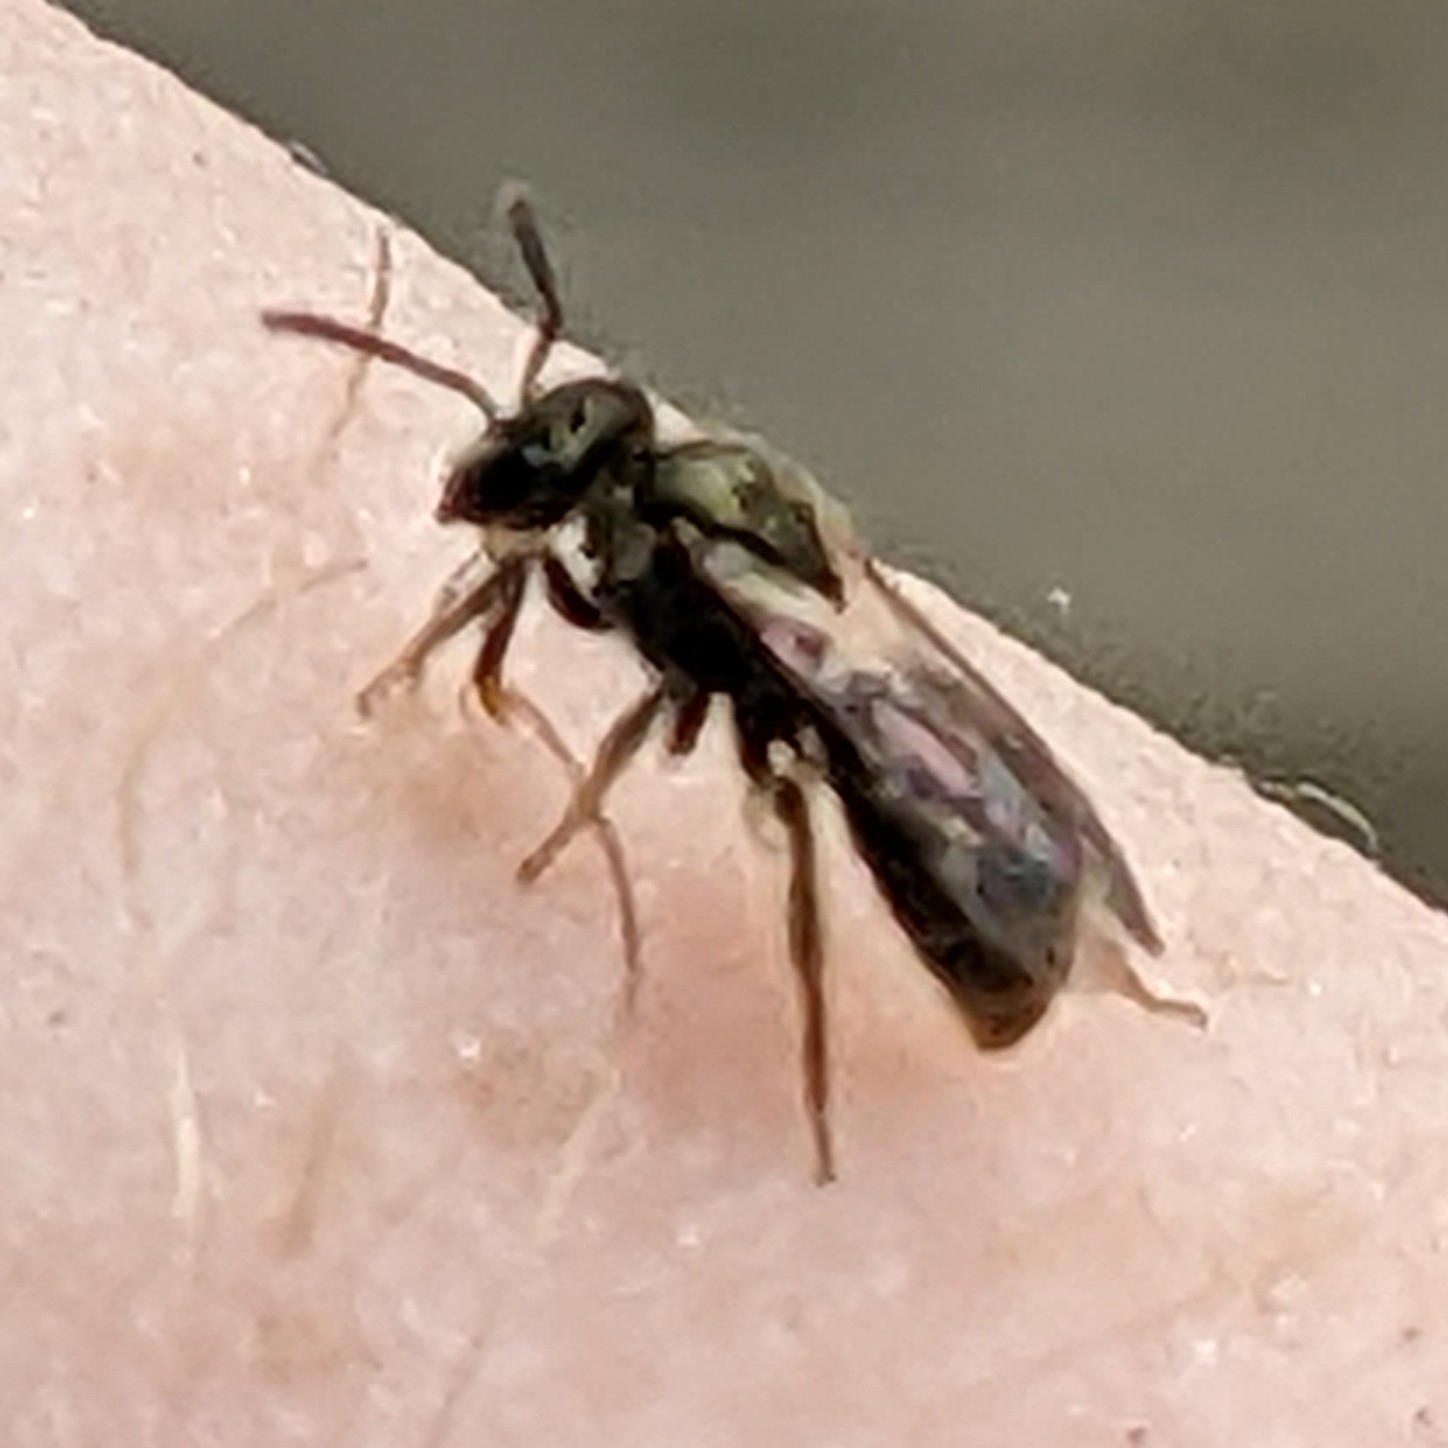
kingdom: Animalia
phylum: Arthropoda
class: Insecta
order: Hymenoptera
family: Halictidae
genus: Dialictus
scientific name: Dialictus
